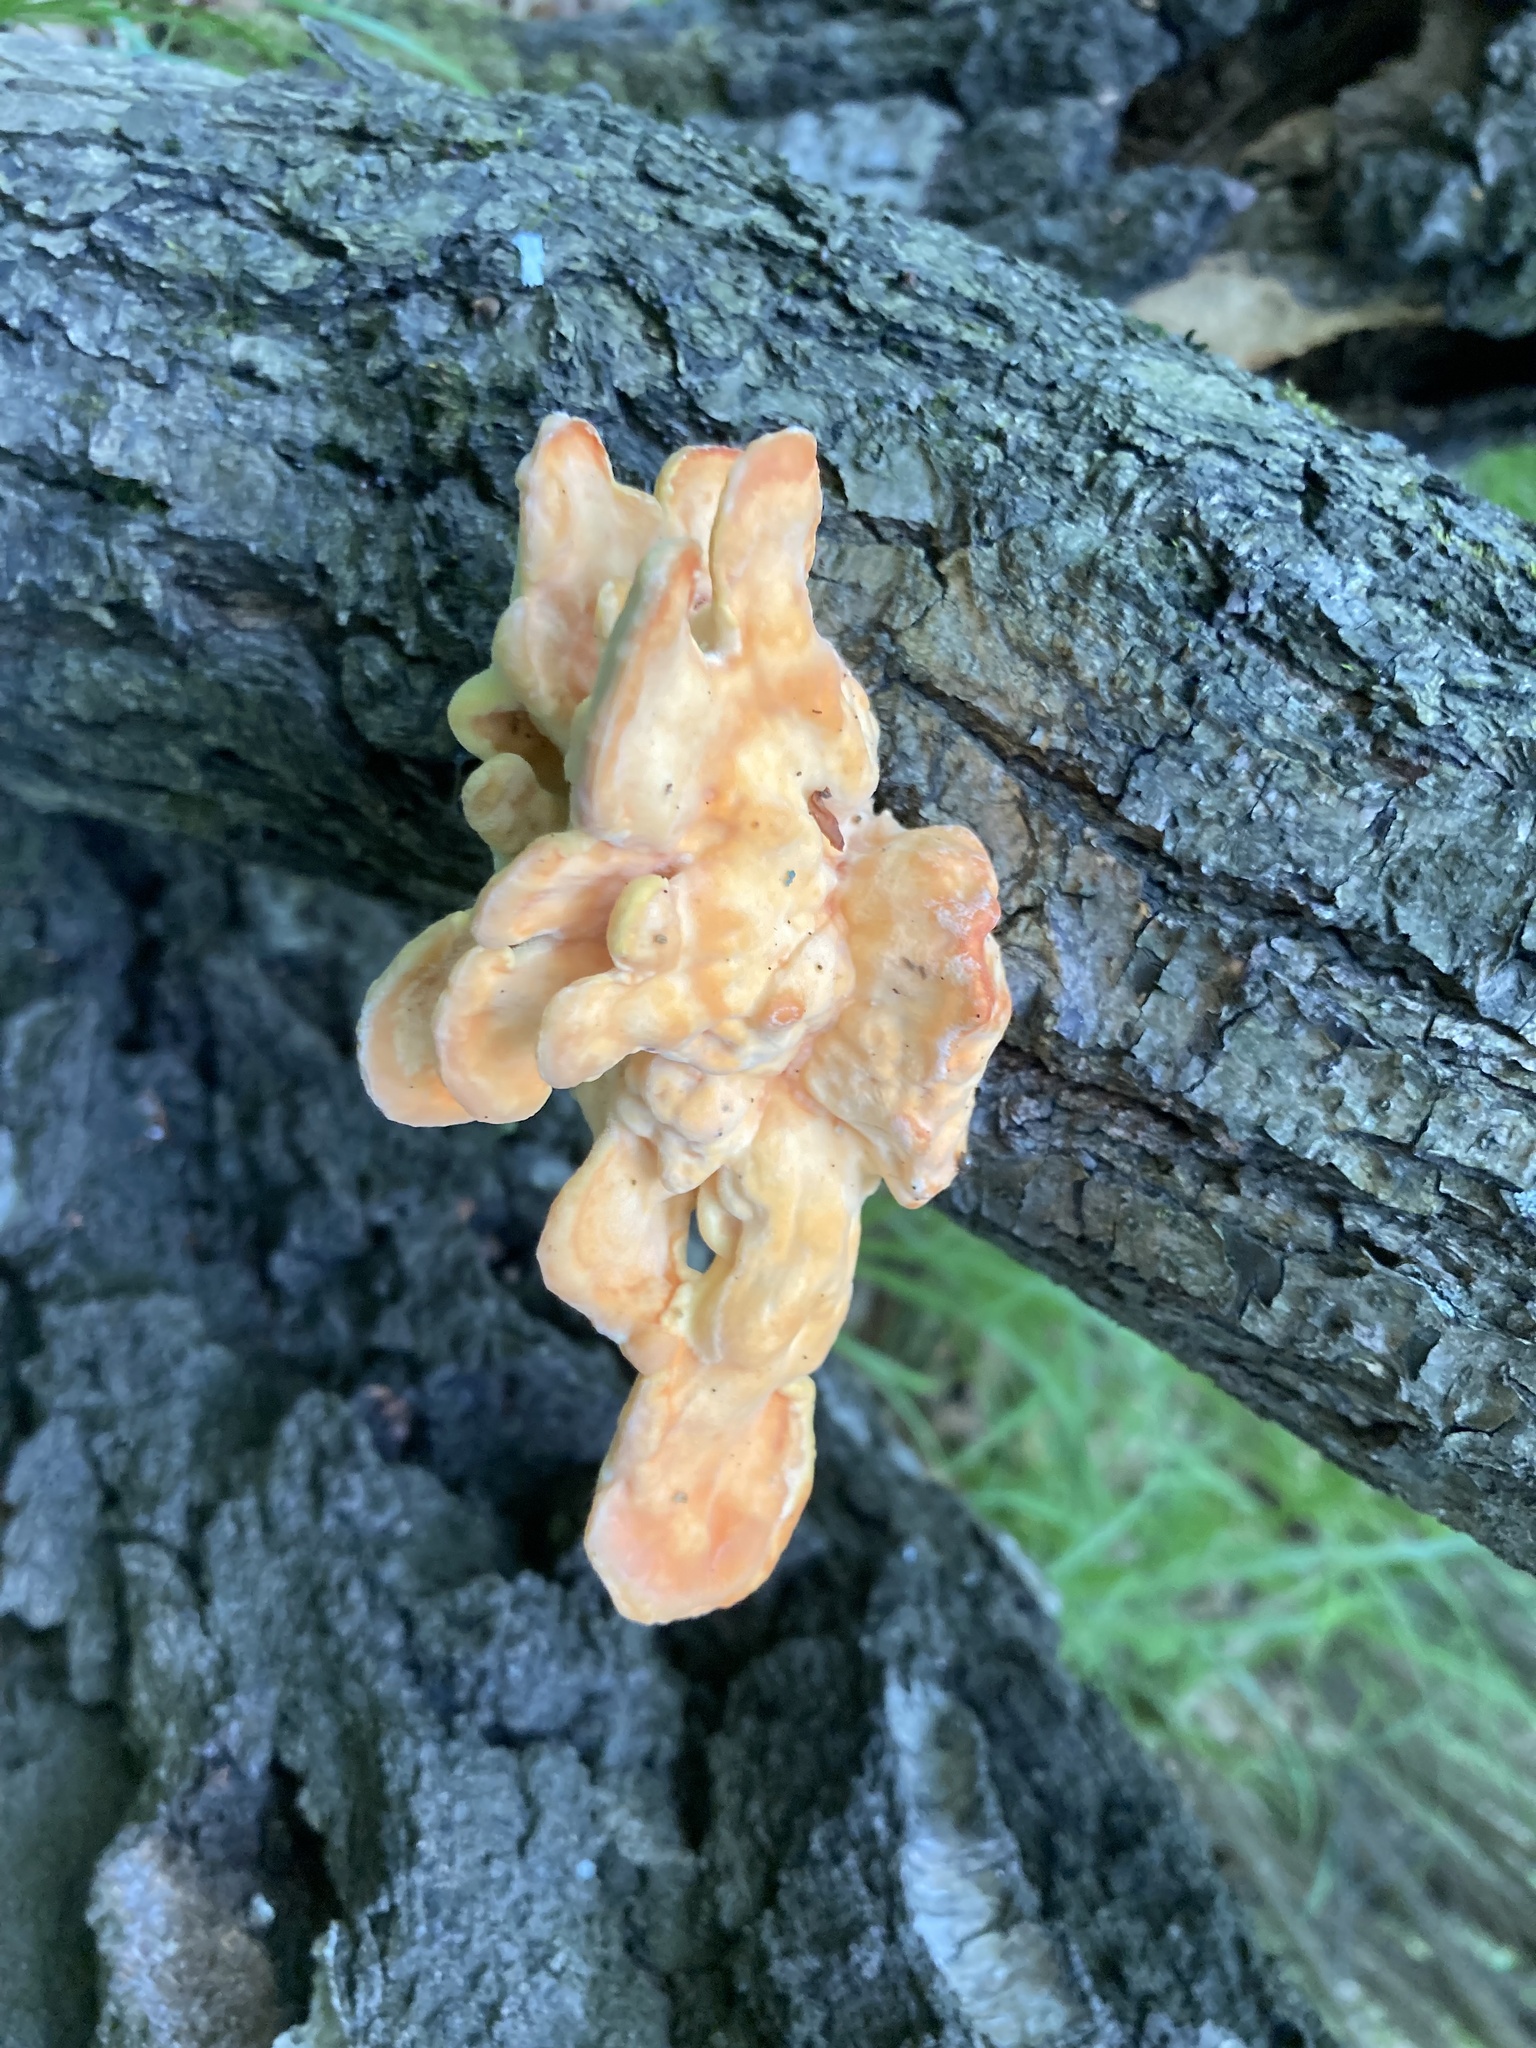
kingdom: Fungi
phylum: Basidiomycota
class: Agaricomycetes
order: Polyporales
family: Laetiporaceae
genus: Laetiporus
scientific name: Laetiporus sulphureus
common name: Chicken of the woods
